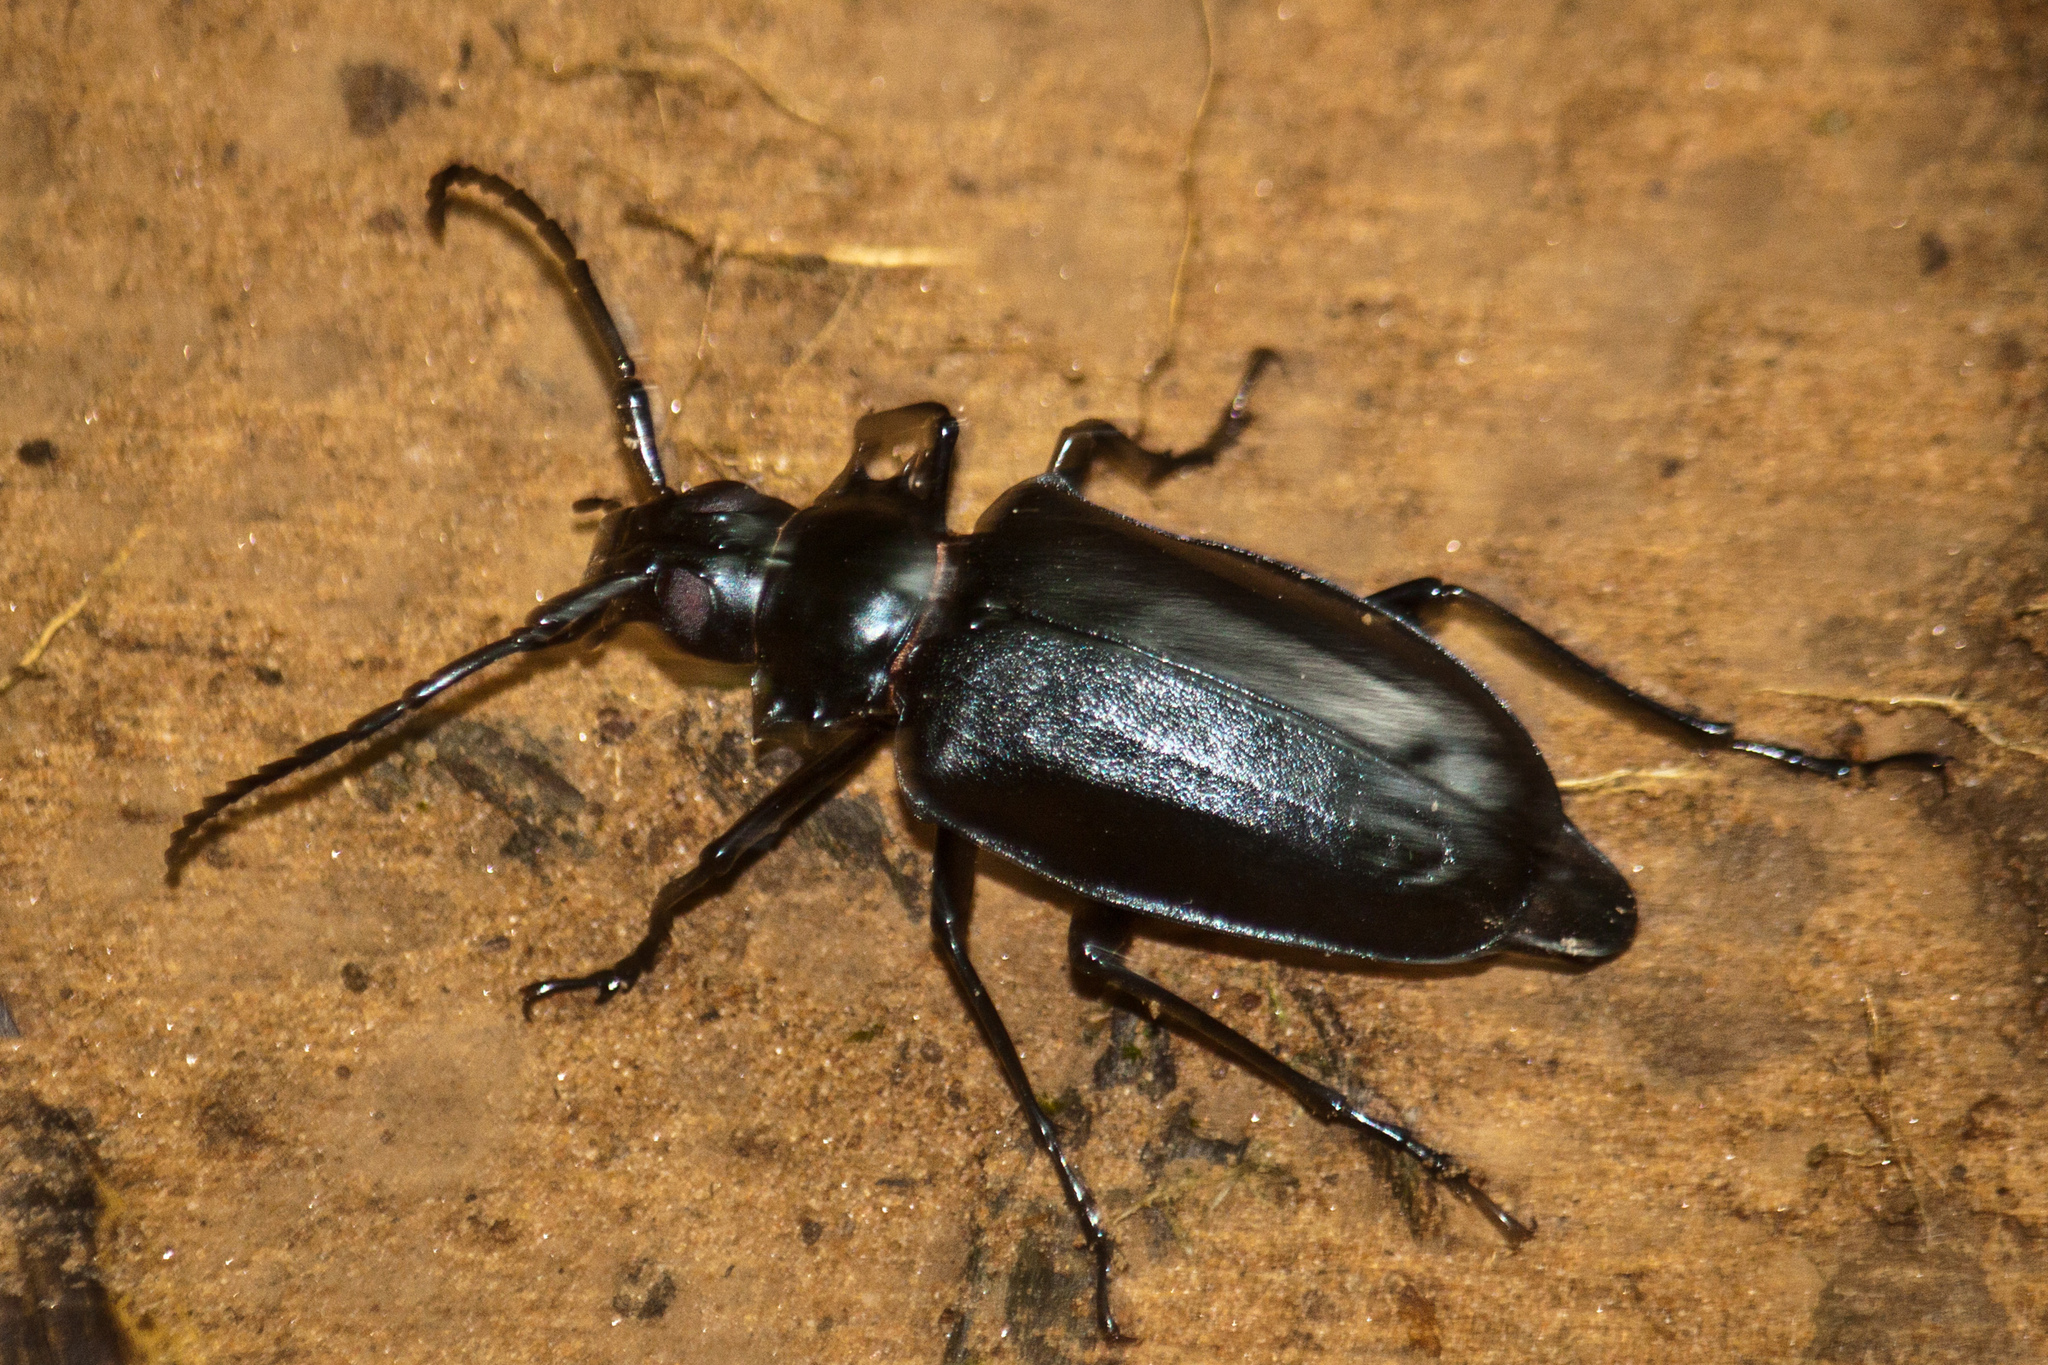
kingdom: Animalia
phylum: Arthropoda
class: Insecta
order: Coleoptera
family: Cerambycidae
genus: Dorysthenes
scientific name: Dorysthenes walkeri
